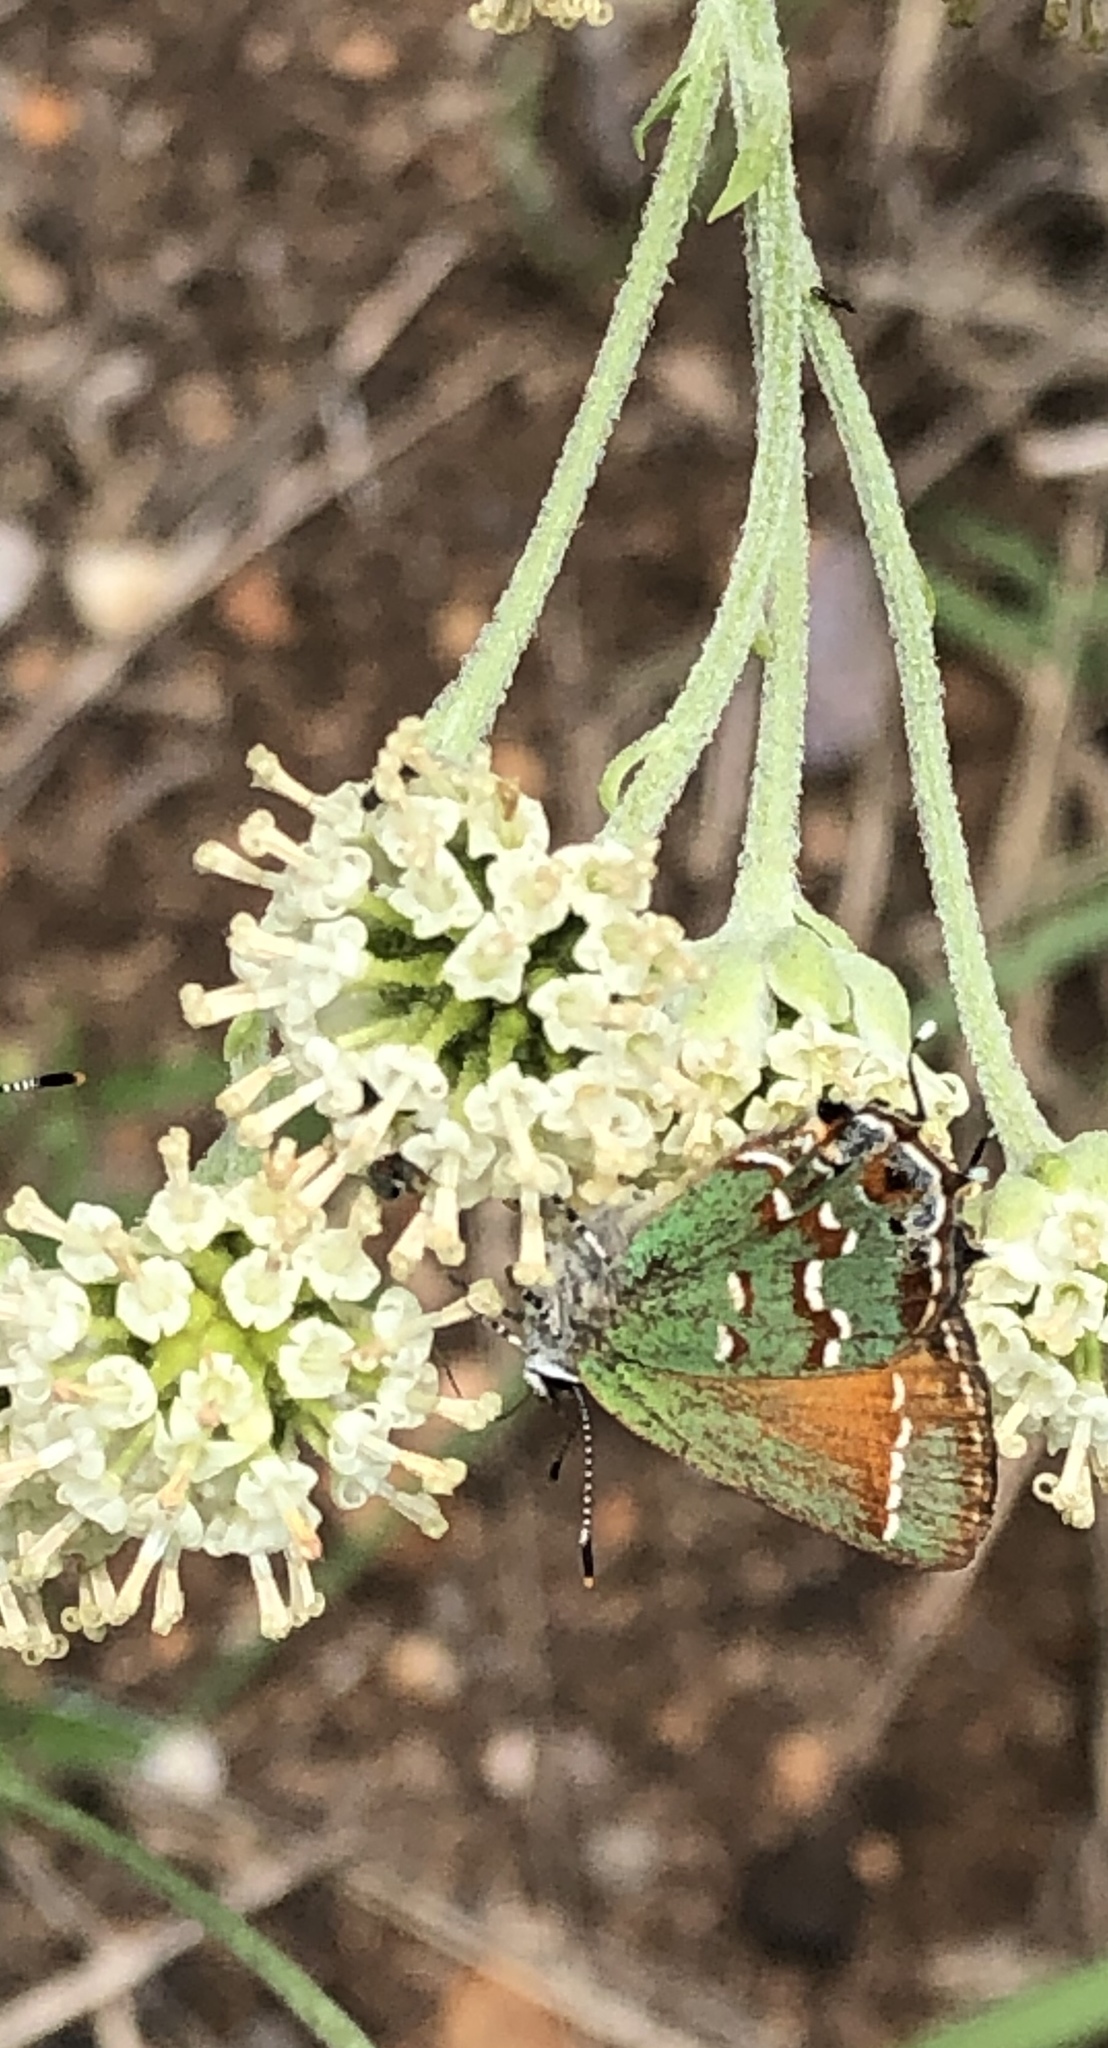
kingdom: Animalia
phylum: Arthropoda
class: Insecta
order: Lepidoptera
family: Lycaenidae
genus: Mitoura
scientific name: Mitoura gryneus
